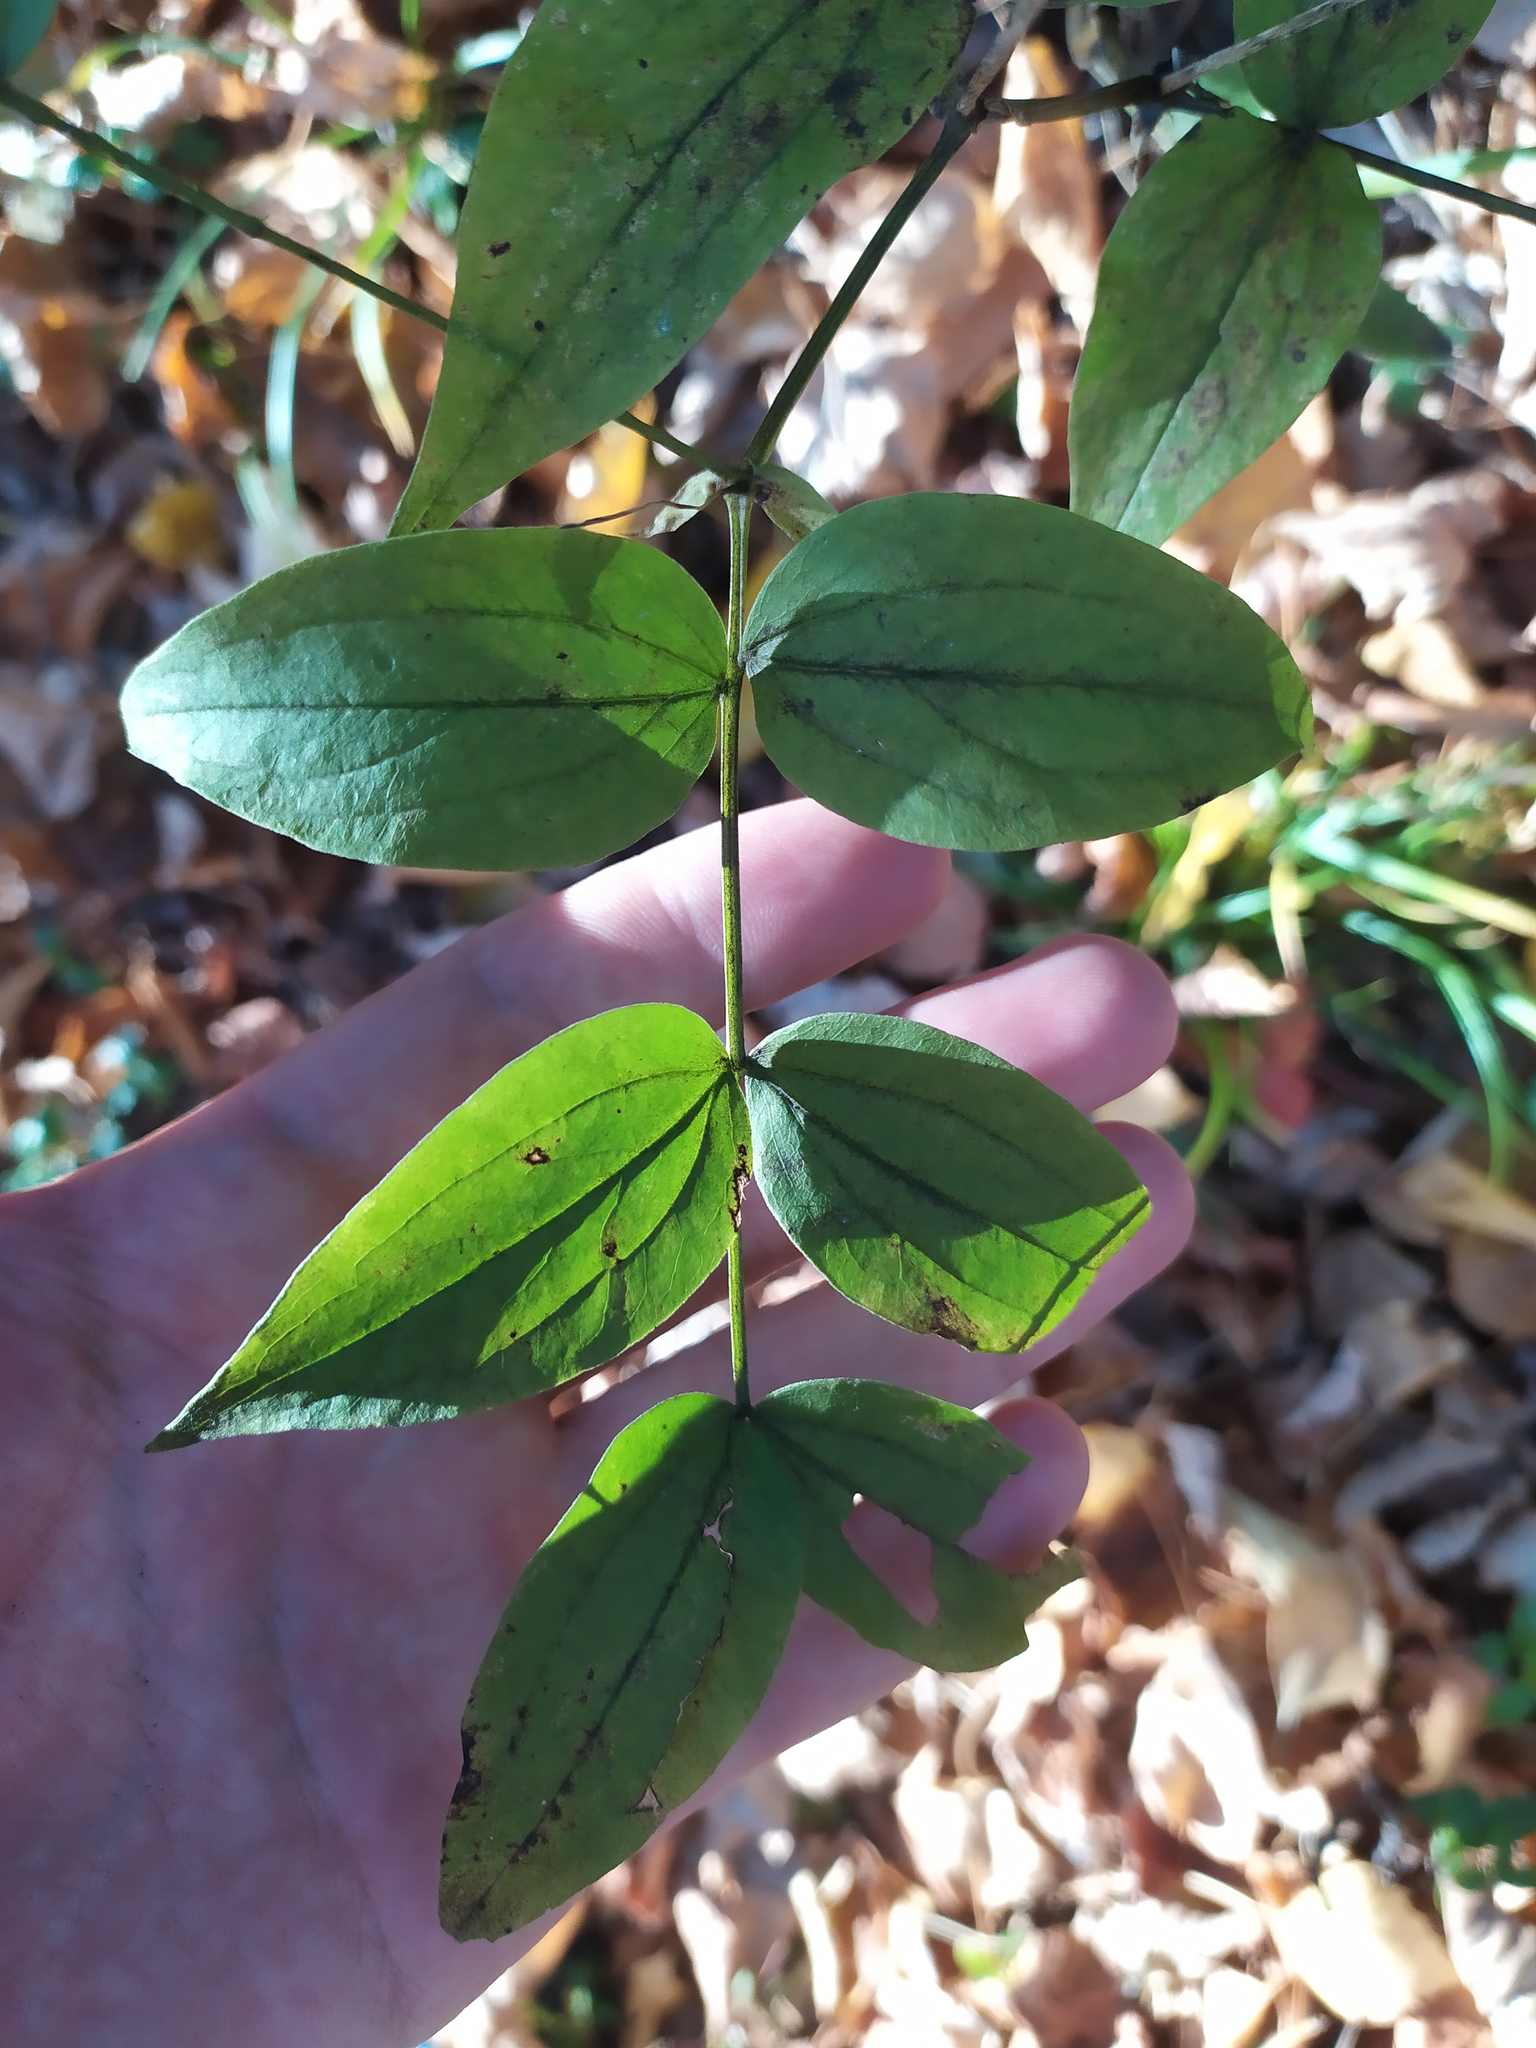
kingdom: Plantae
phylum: Tracheophyta
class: Magnoliopsida
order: Fabales
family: Fabaceae
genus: Lathyrus
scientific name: Lathyrus vernus
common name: Spring pea
